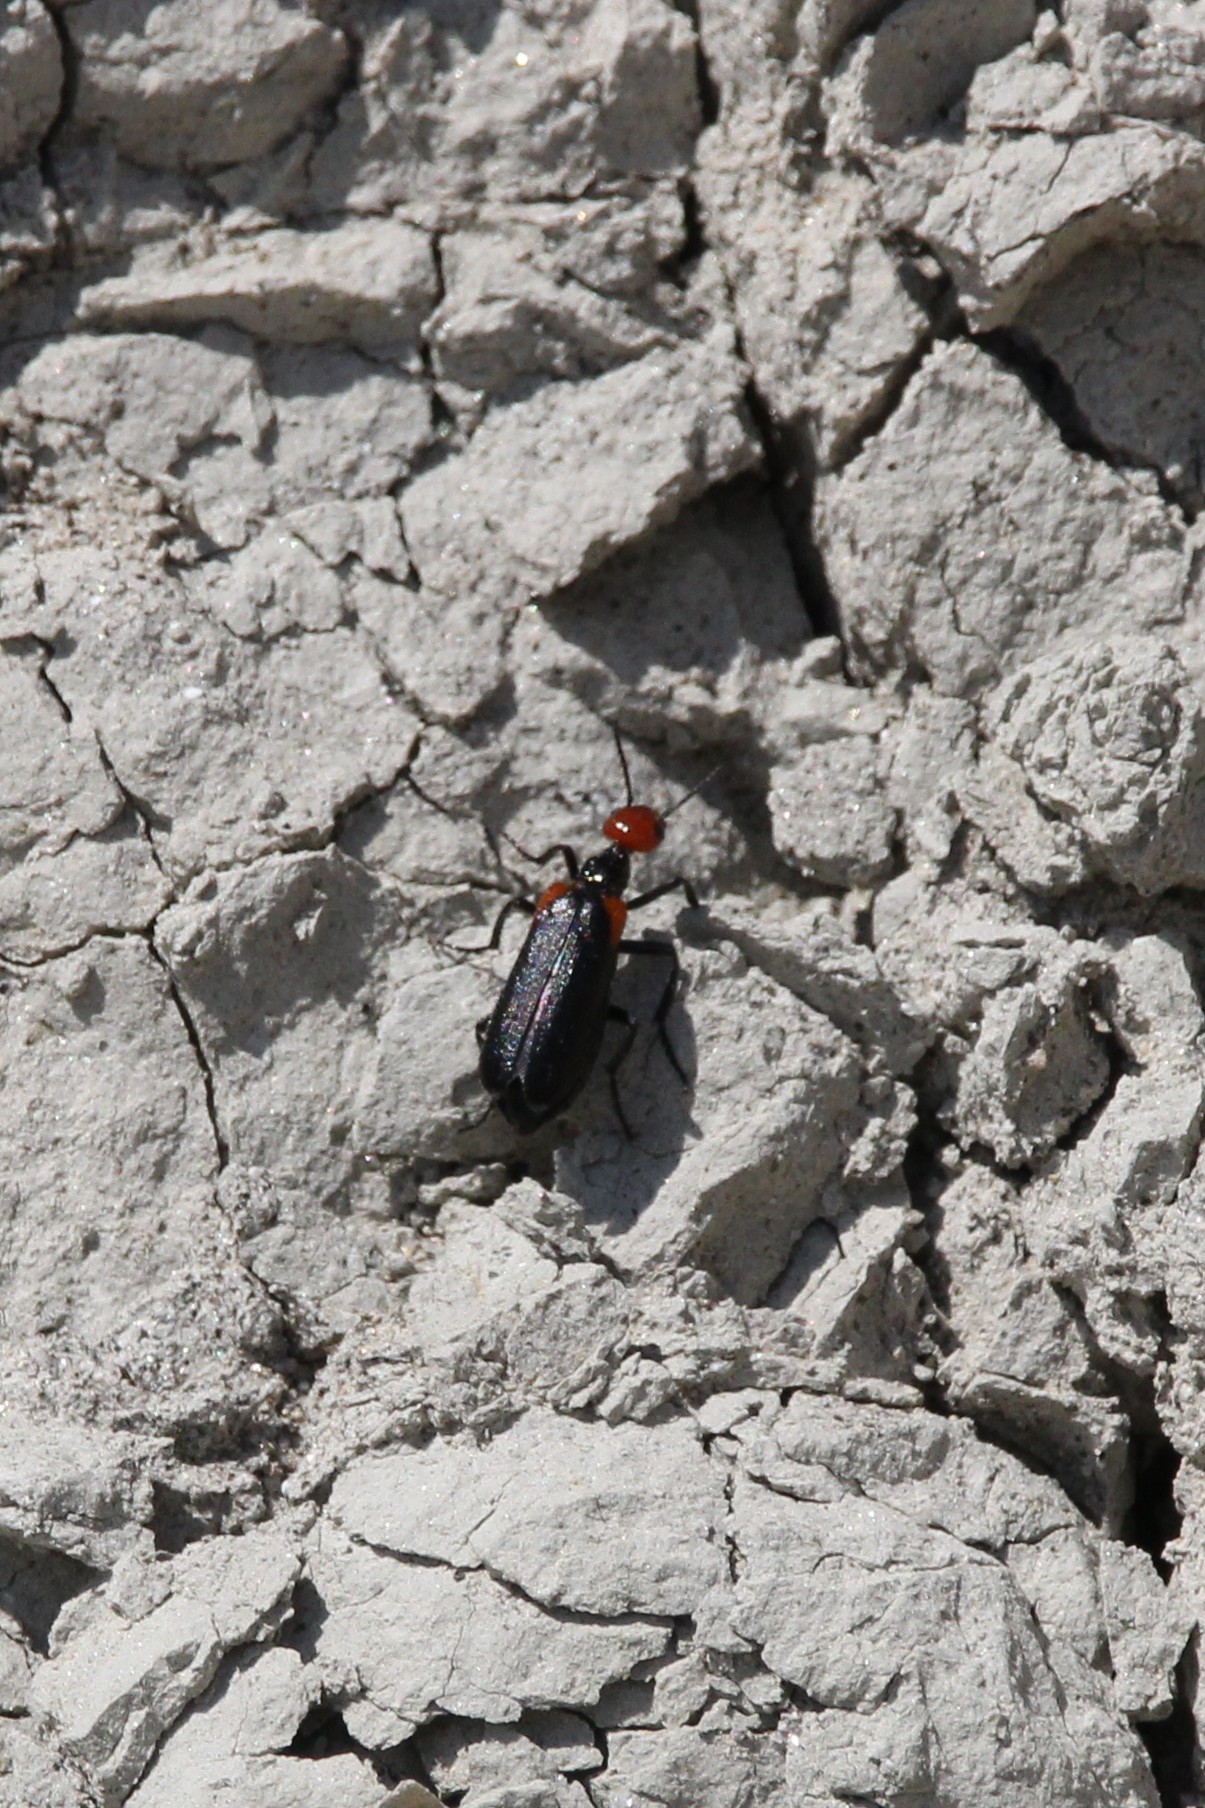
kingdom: Animalia
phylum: Arthropoda
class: Insecta
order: Coleoptera
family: Meloidae
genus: Eupompha
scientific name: Eupompha histrionica
